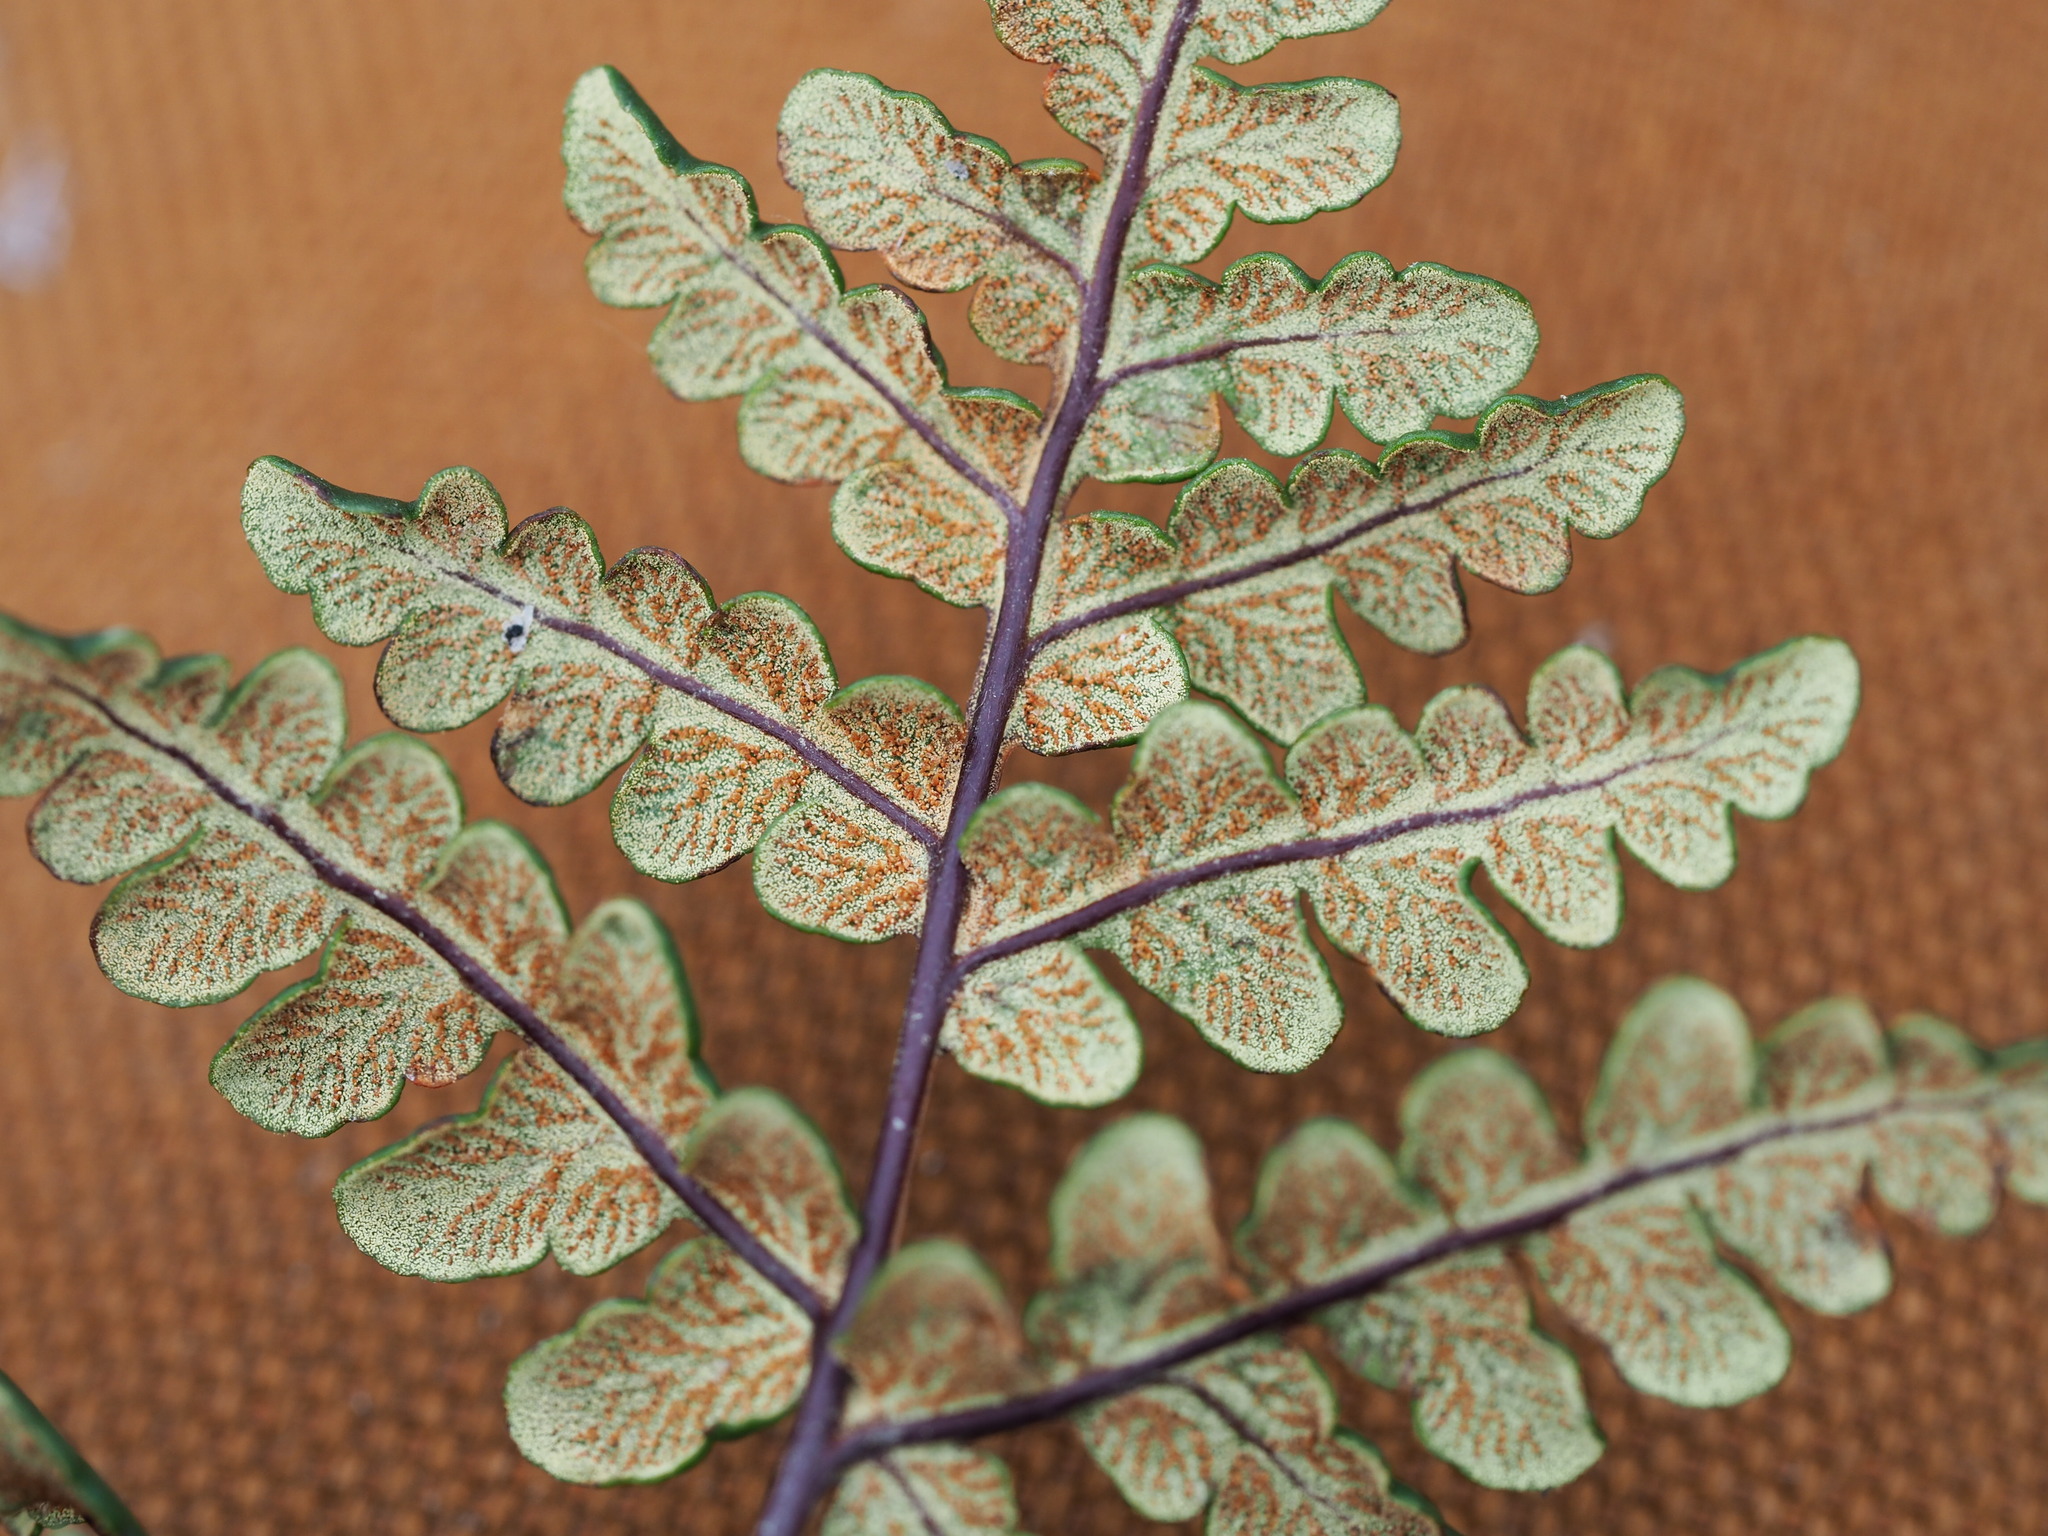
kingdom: Plantae
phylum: Tracheophyta
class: Polypodiopsida
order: Polypodiales
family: Pteridaceae
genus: Pentagramma
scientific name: Pentagramma triangularis
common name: Gold fern
